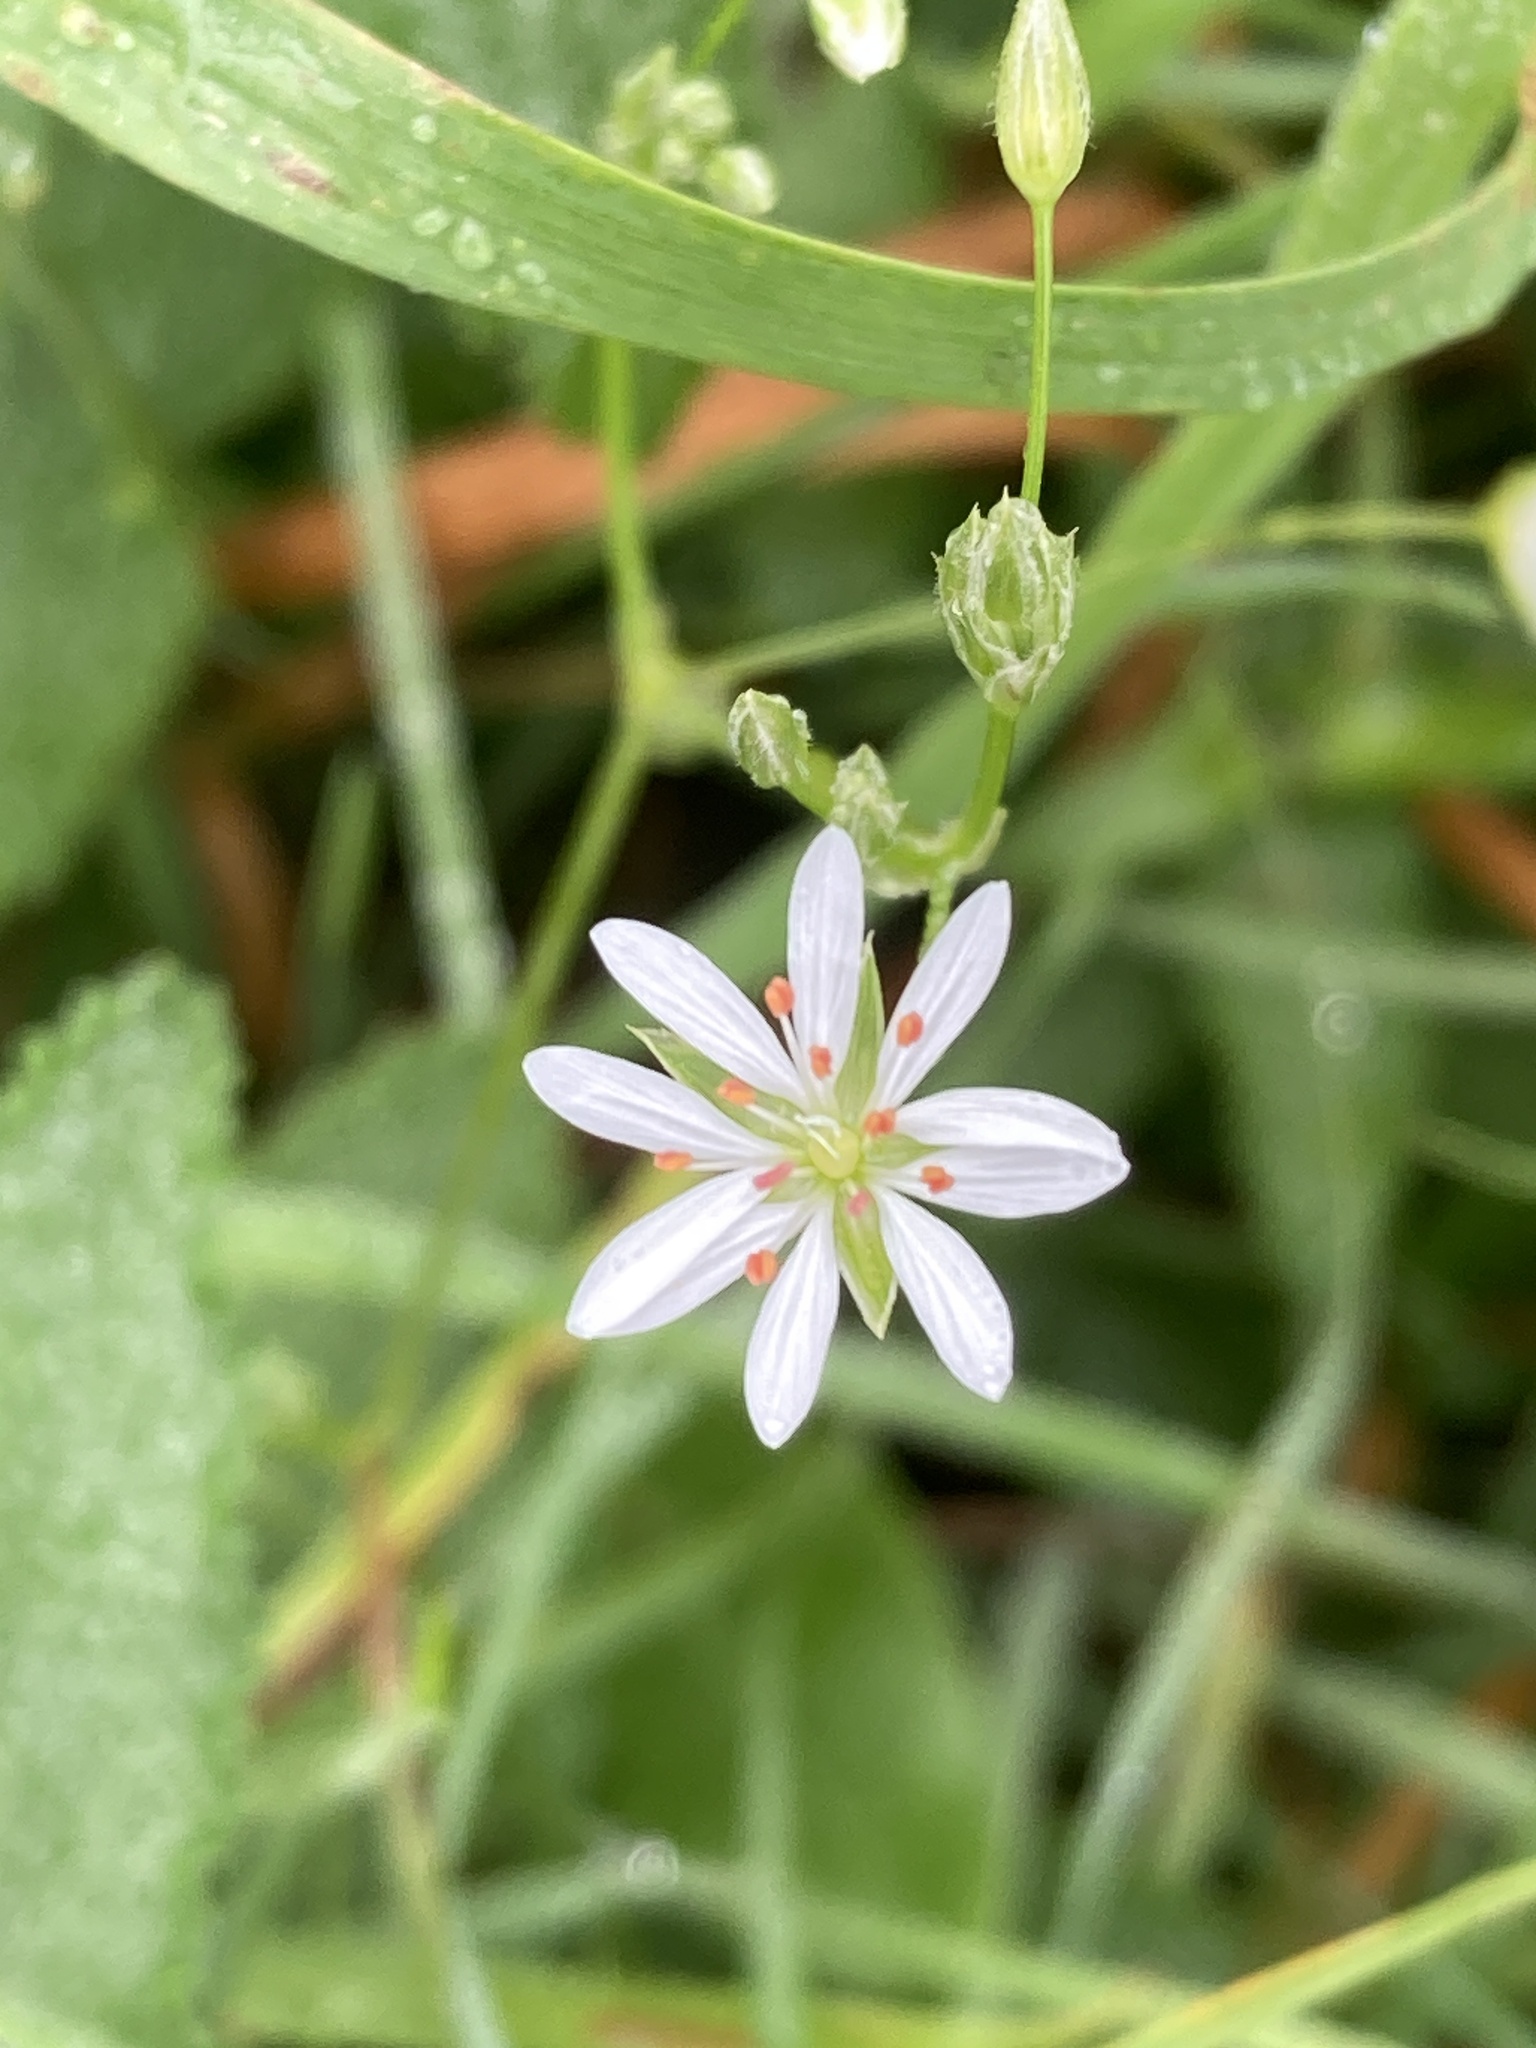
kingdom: Plantae
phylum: Tracheophyta
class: Magnoliopsida
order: Caryophyllales
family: Caryophyllaceae
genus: Stellaria
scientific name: Stellaria graminea
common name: Grass-like starwort
